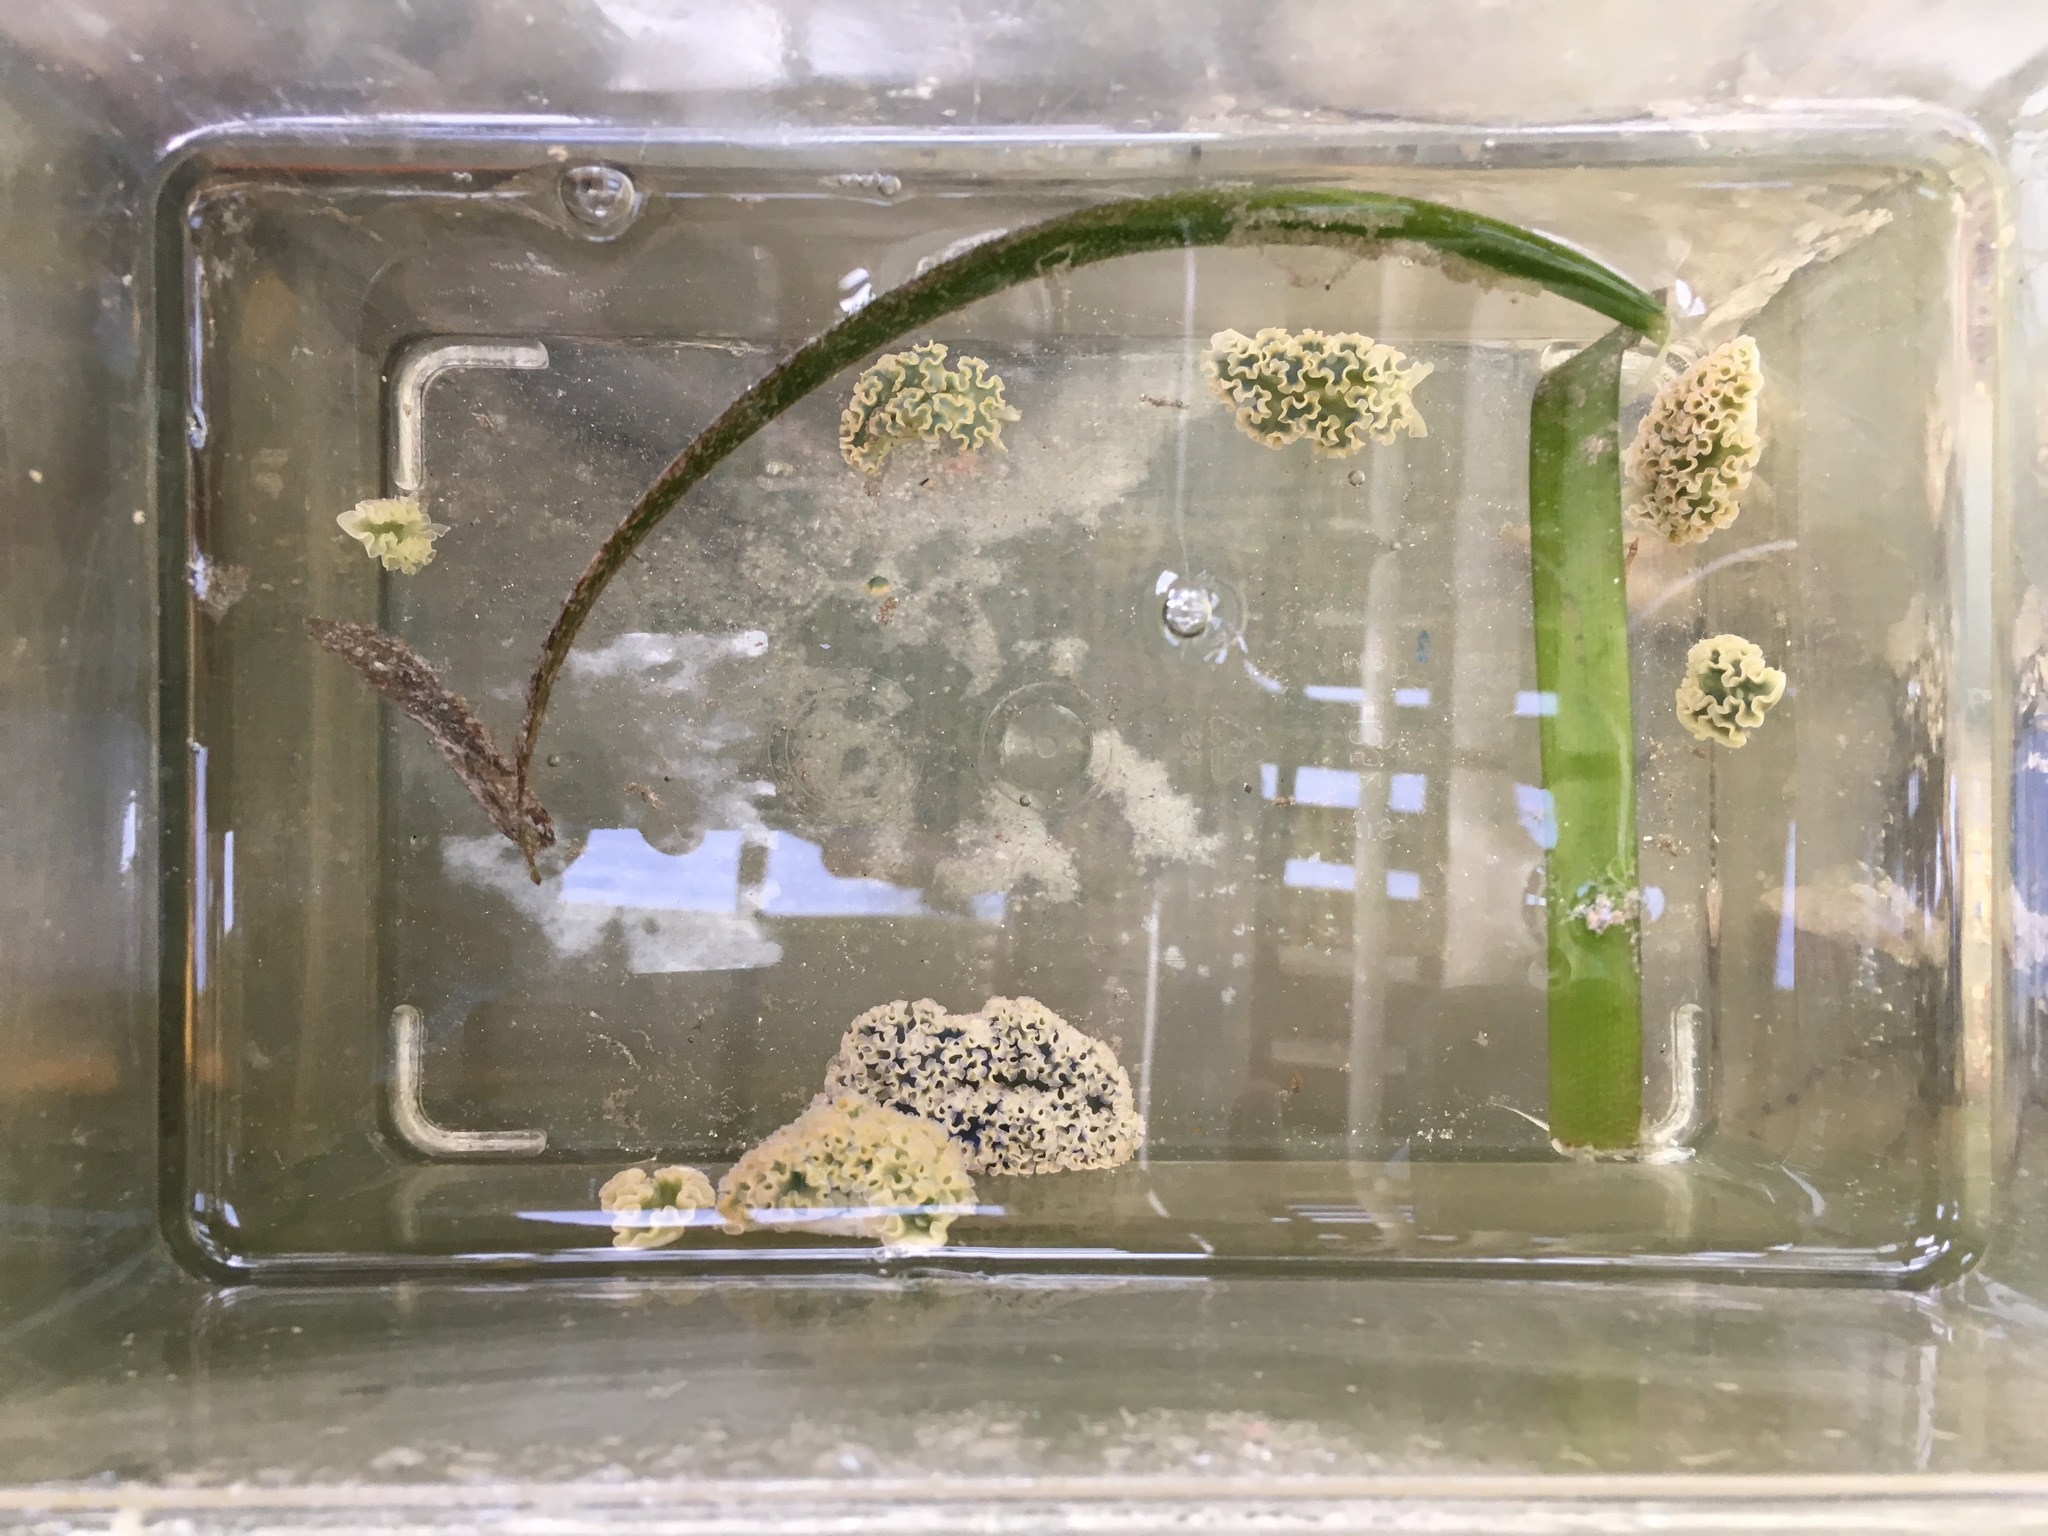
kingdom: Animalia
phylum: Mollusca
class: Gastropoda
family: Plakobranchidae
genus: Elysia
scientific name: Elysia crispata
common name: Lettuce slug
